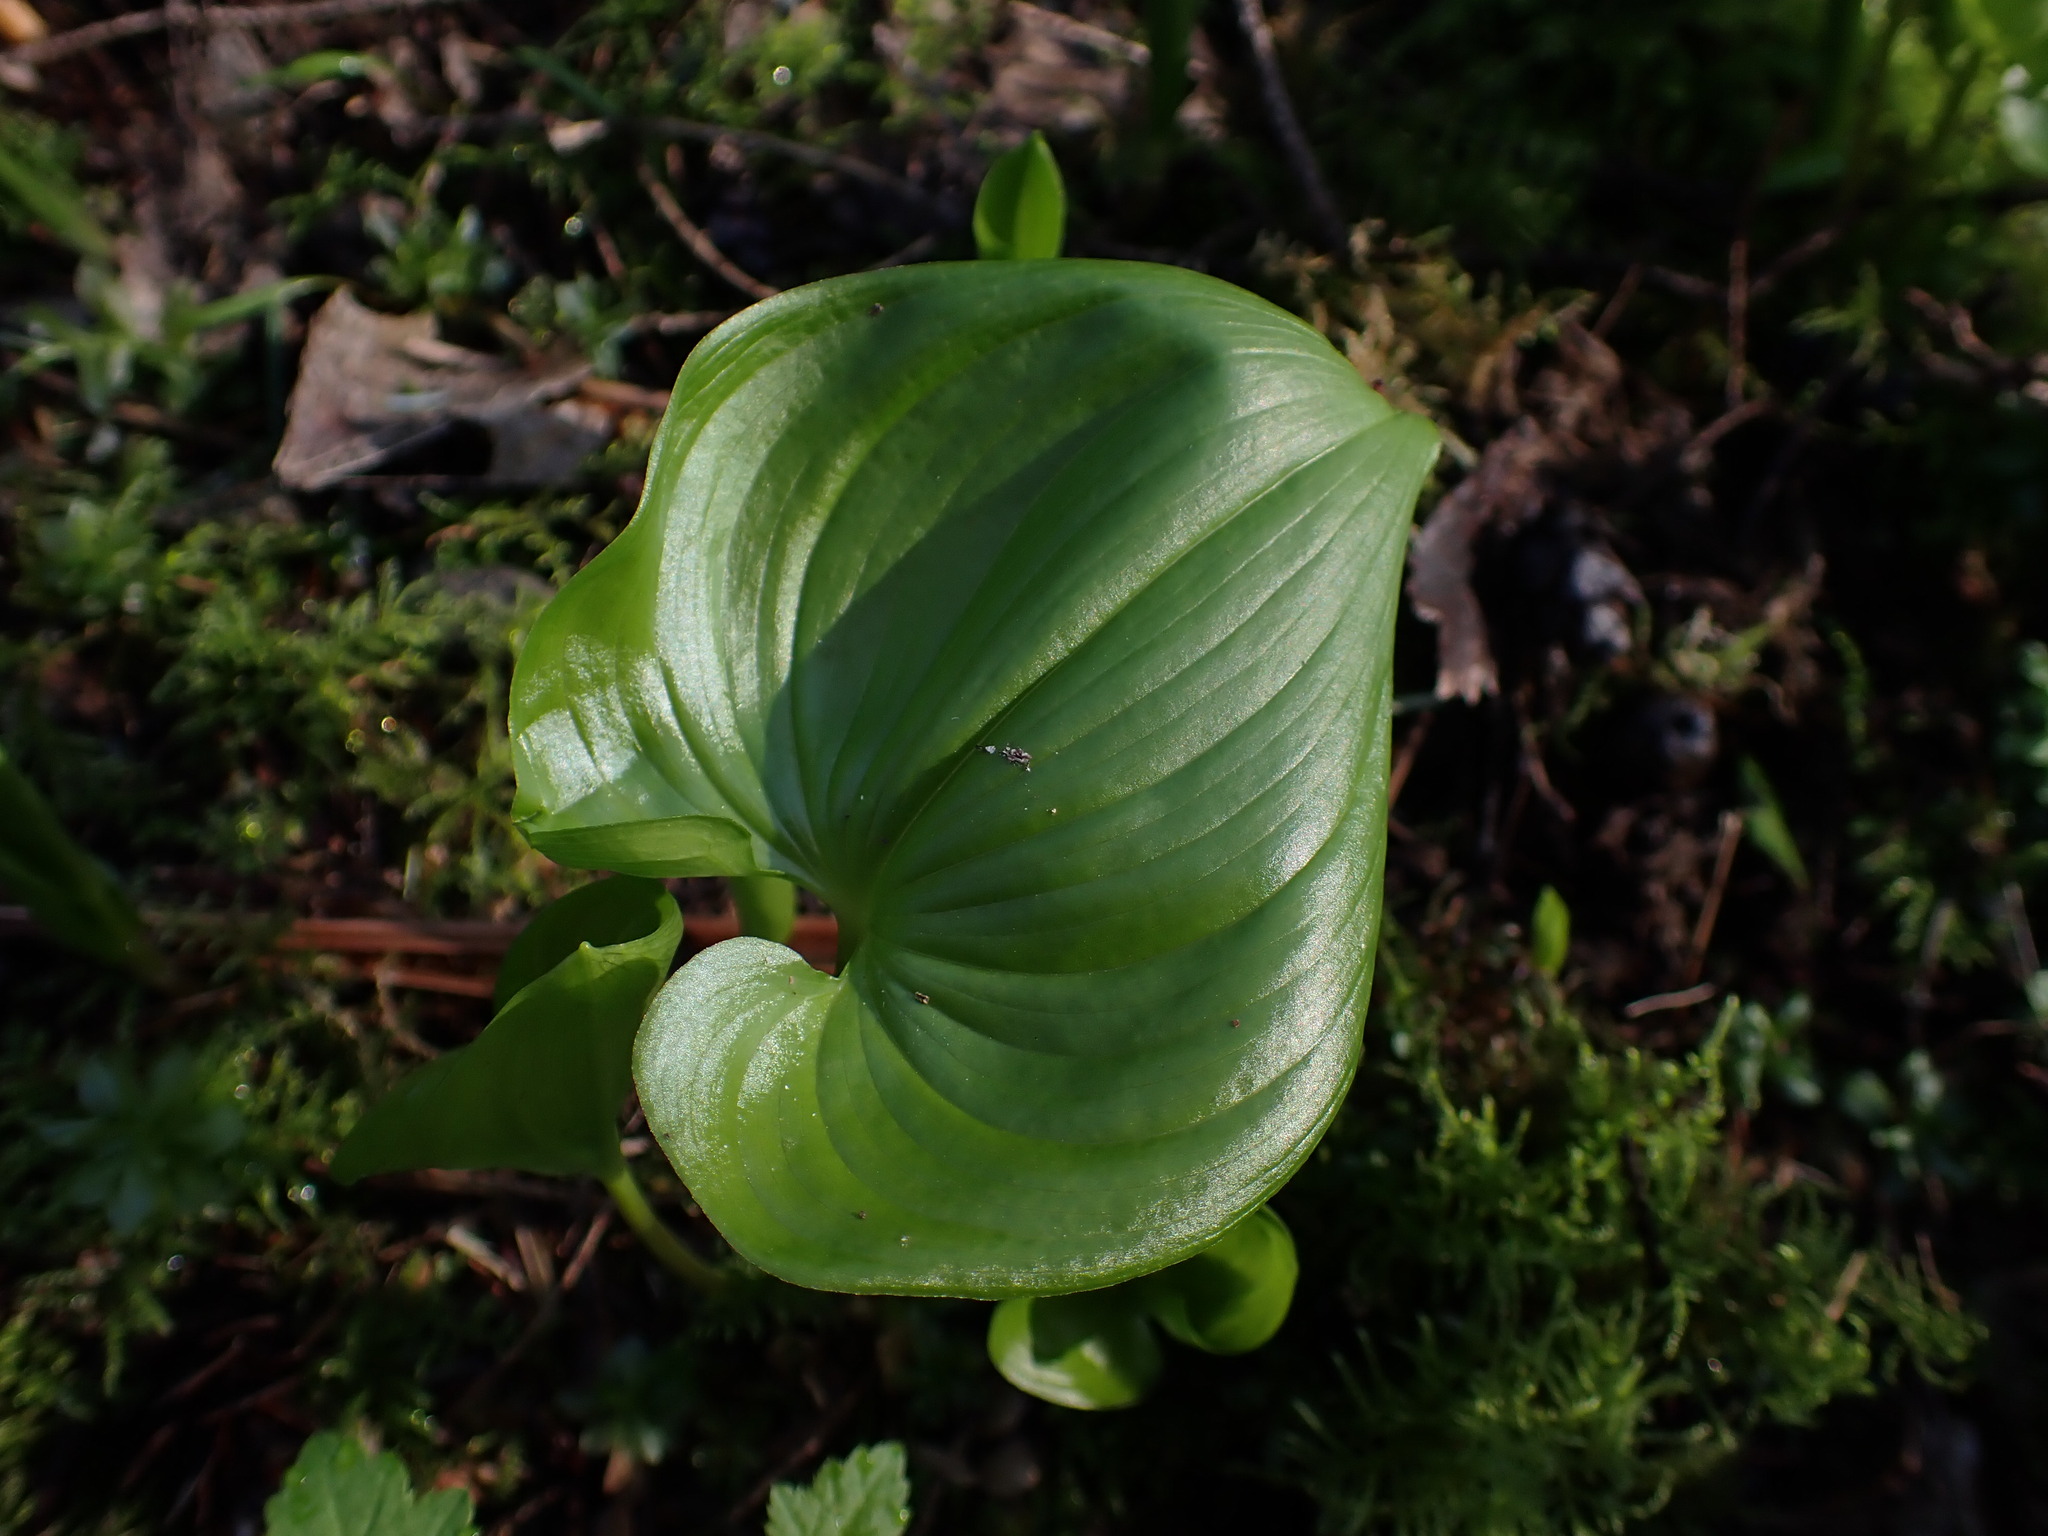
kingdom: Plantae
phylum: Tracheophyta
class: Liliopsida
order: Asparagales
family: Asparagaceae
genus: Maianthemum
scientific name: Maianthemum dilatatum
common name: False lily-of-the-valley
